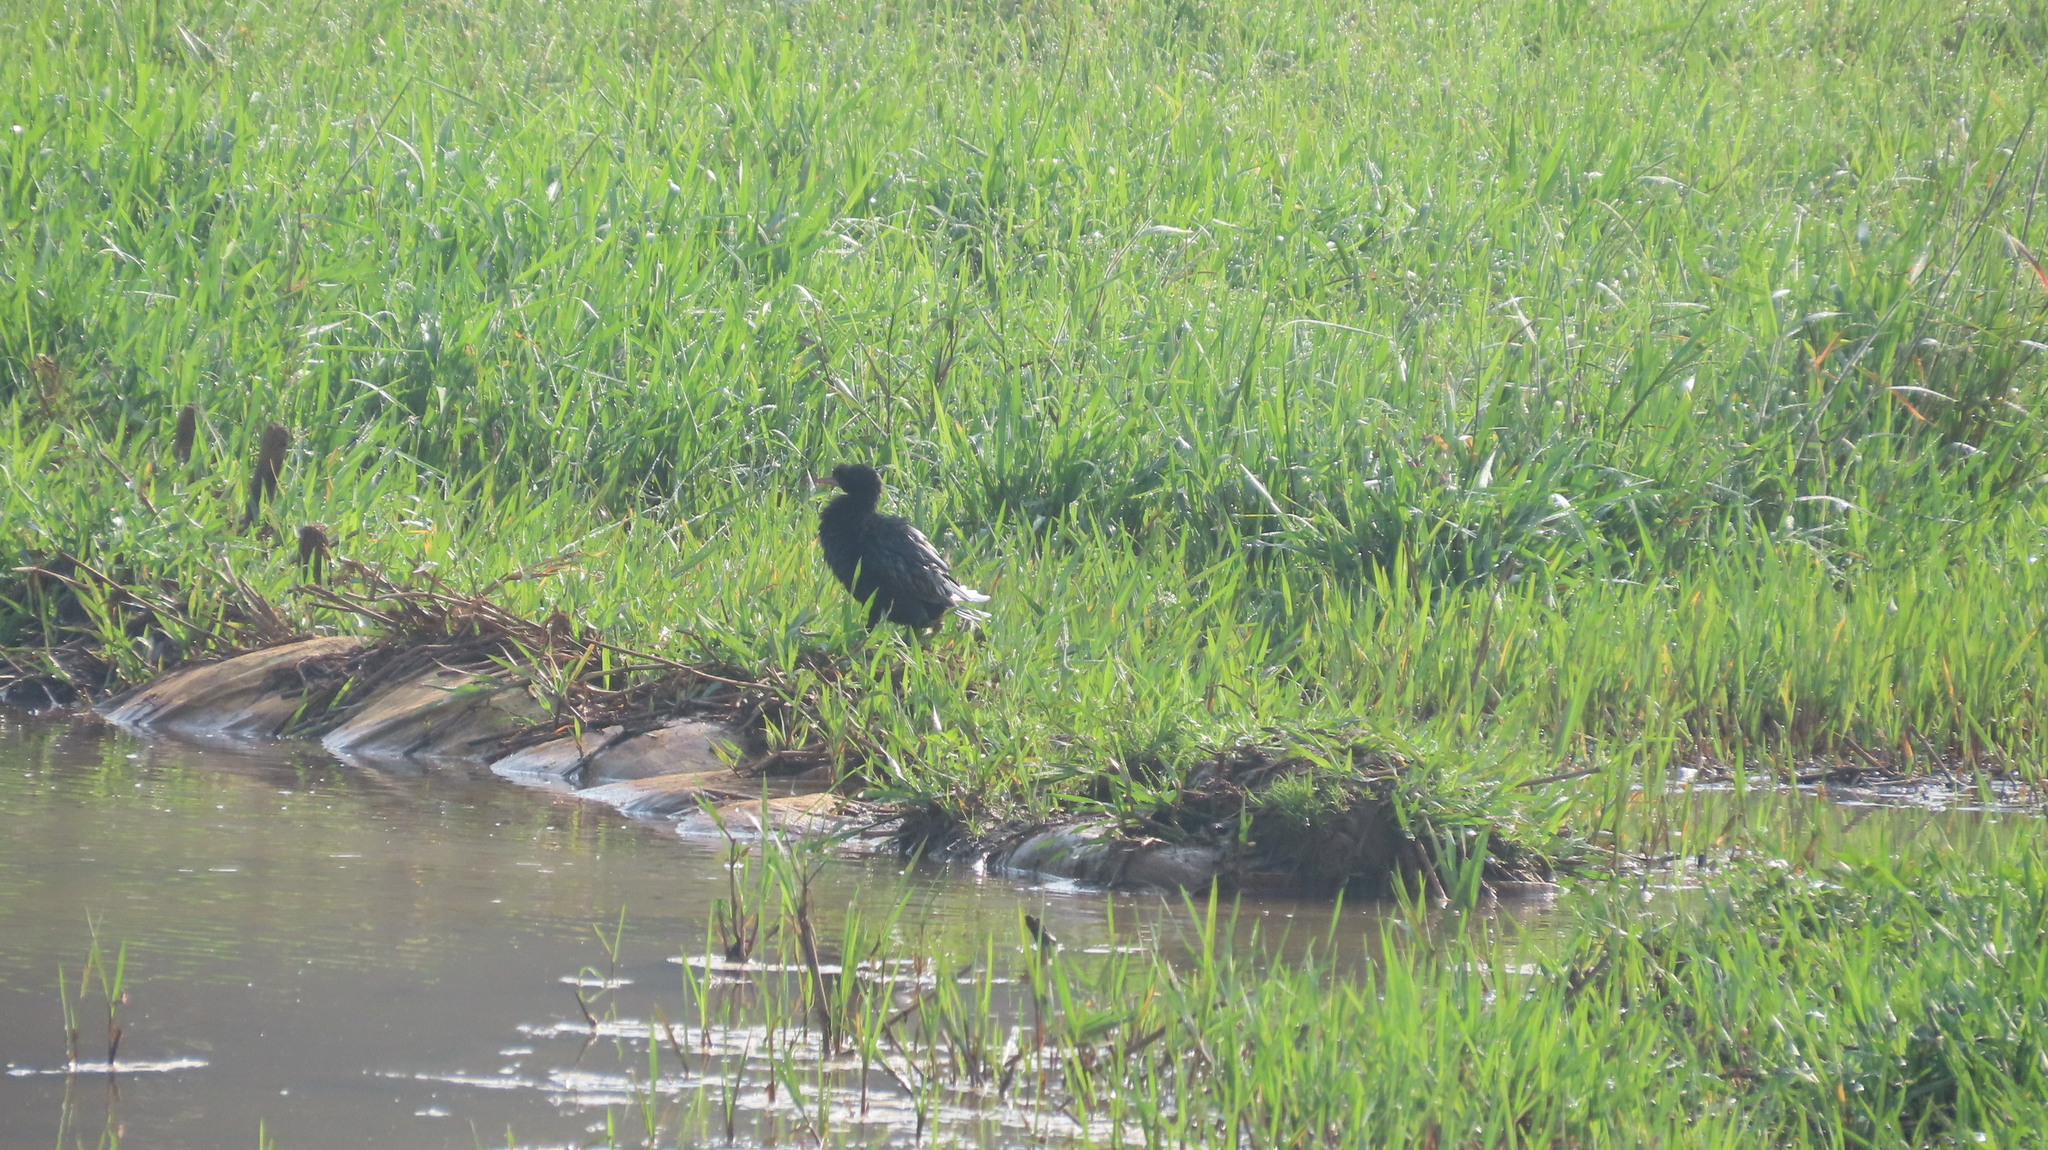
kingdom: Animalia
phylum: Chordata
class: Aves
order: Suliformes
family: Phalacrocoracidae
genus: Microcarbo
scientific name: Microcarbo niger
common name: Little cormorant
